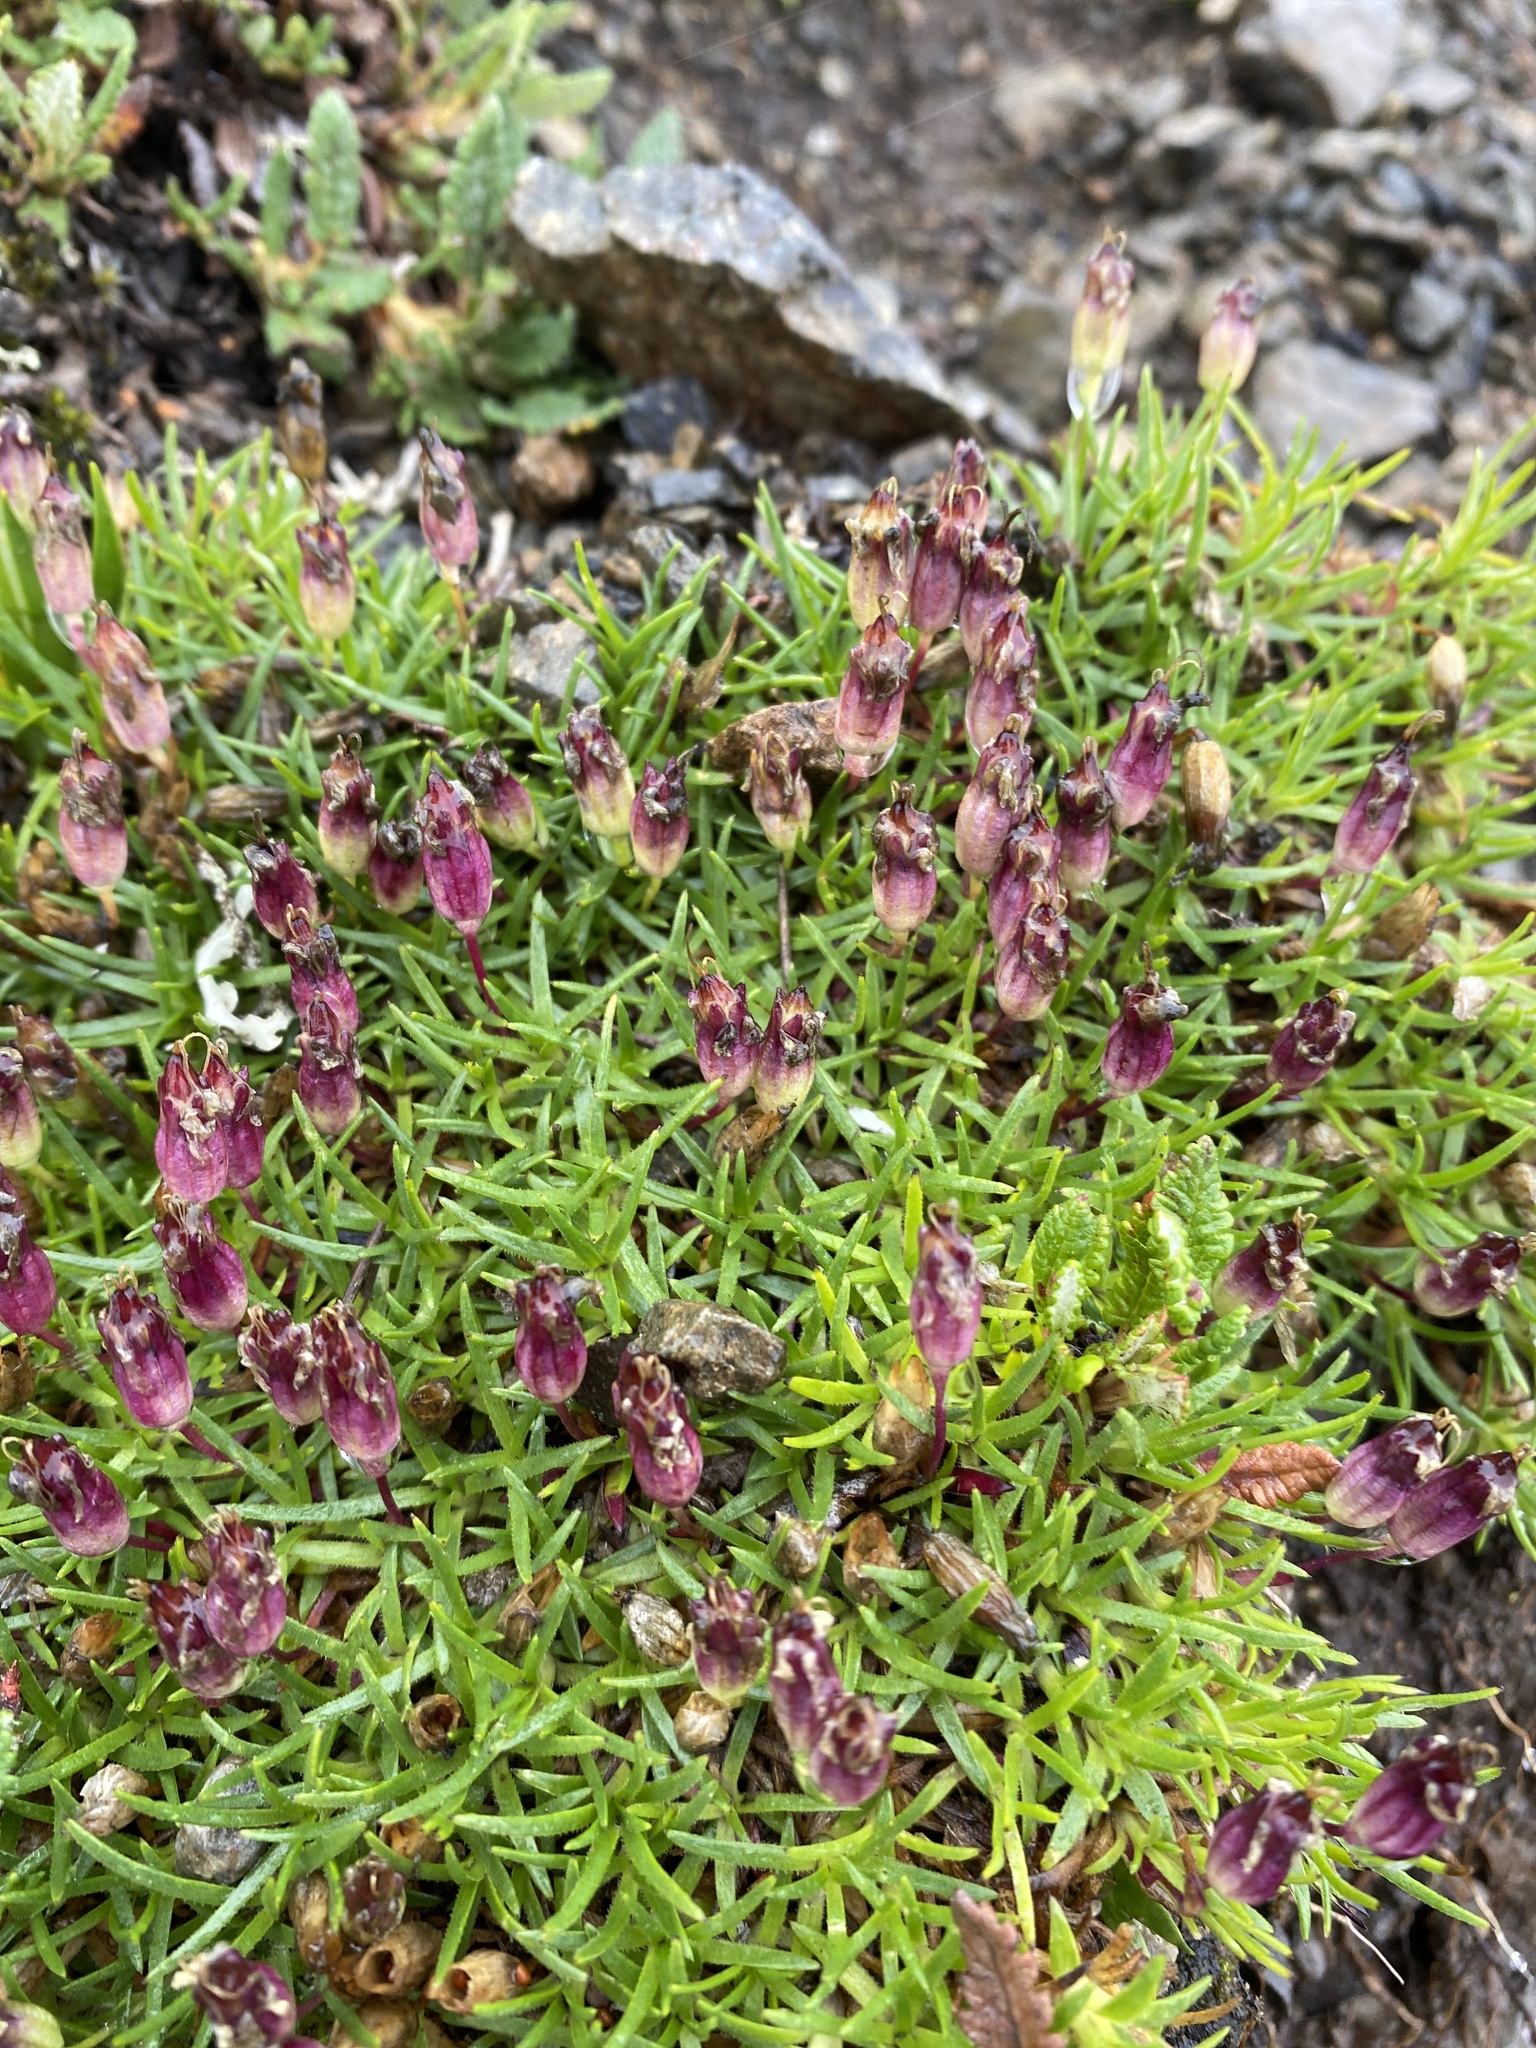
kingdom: Plantae
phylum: Tracheophyta
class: Magnoliopsida
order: Caryophyllales
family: Caryophyllaceae
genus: Silene
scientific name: Silene acaulis
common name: Moss campion
